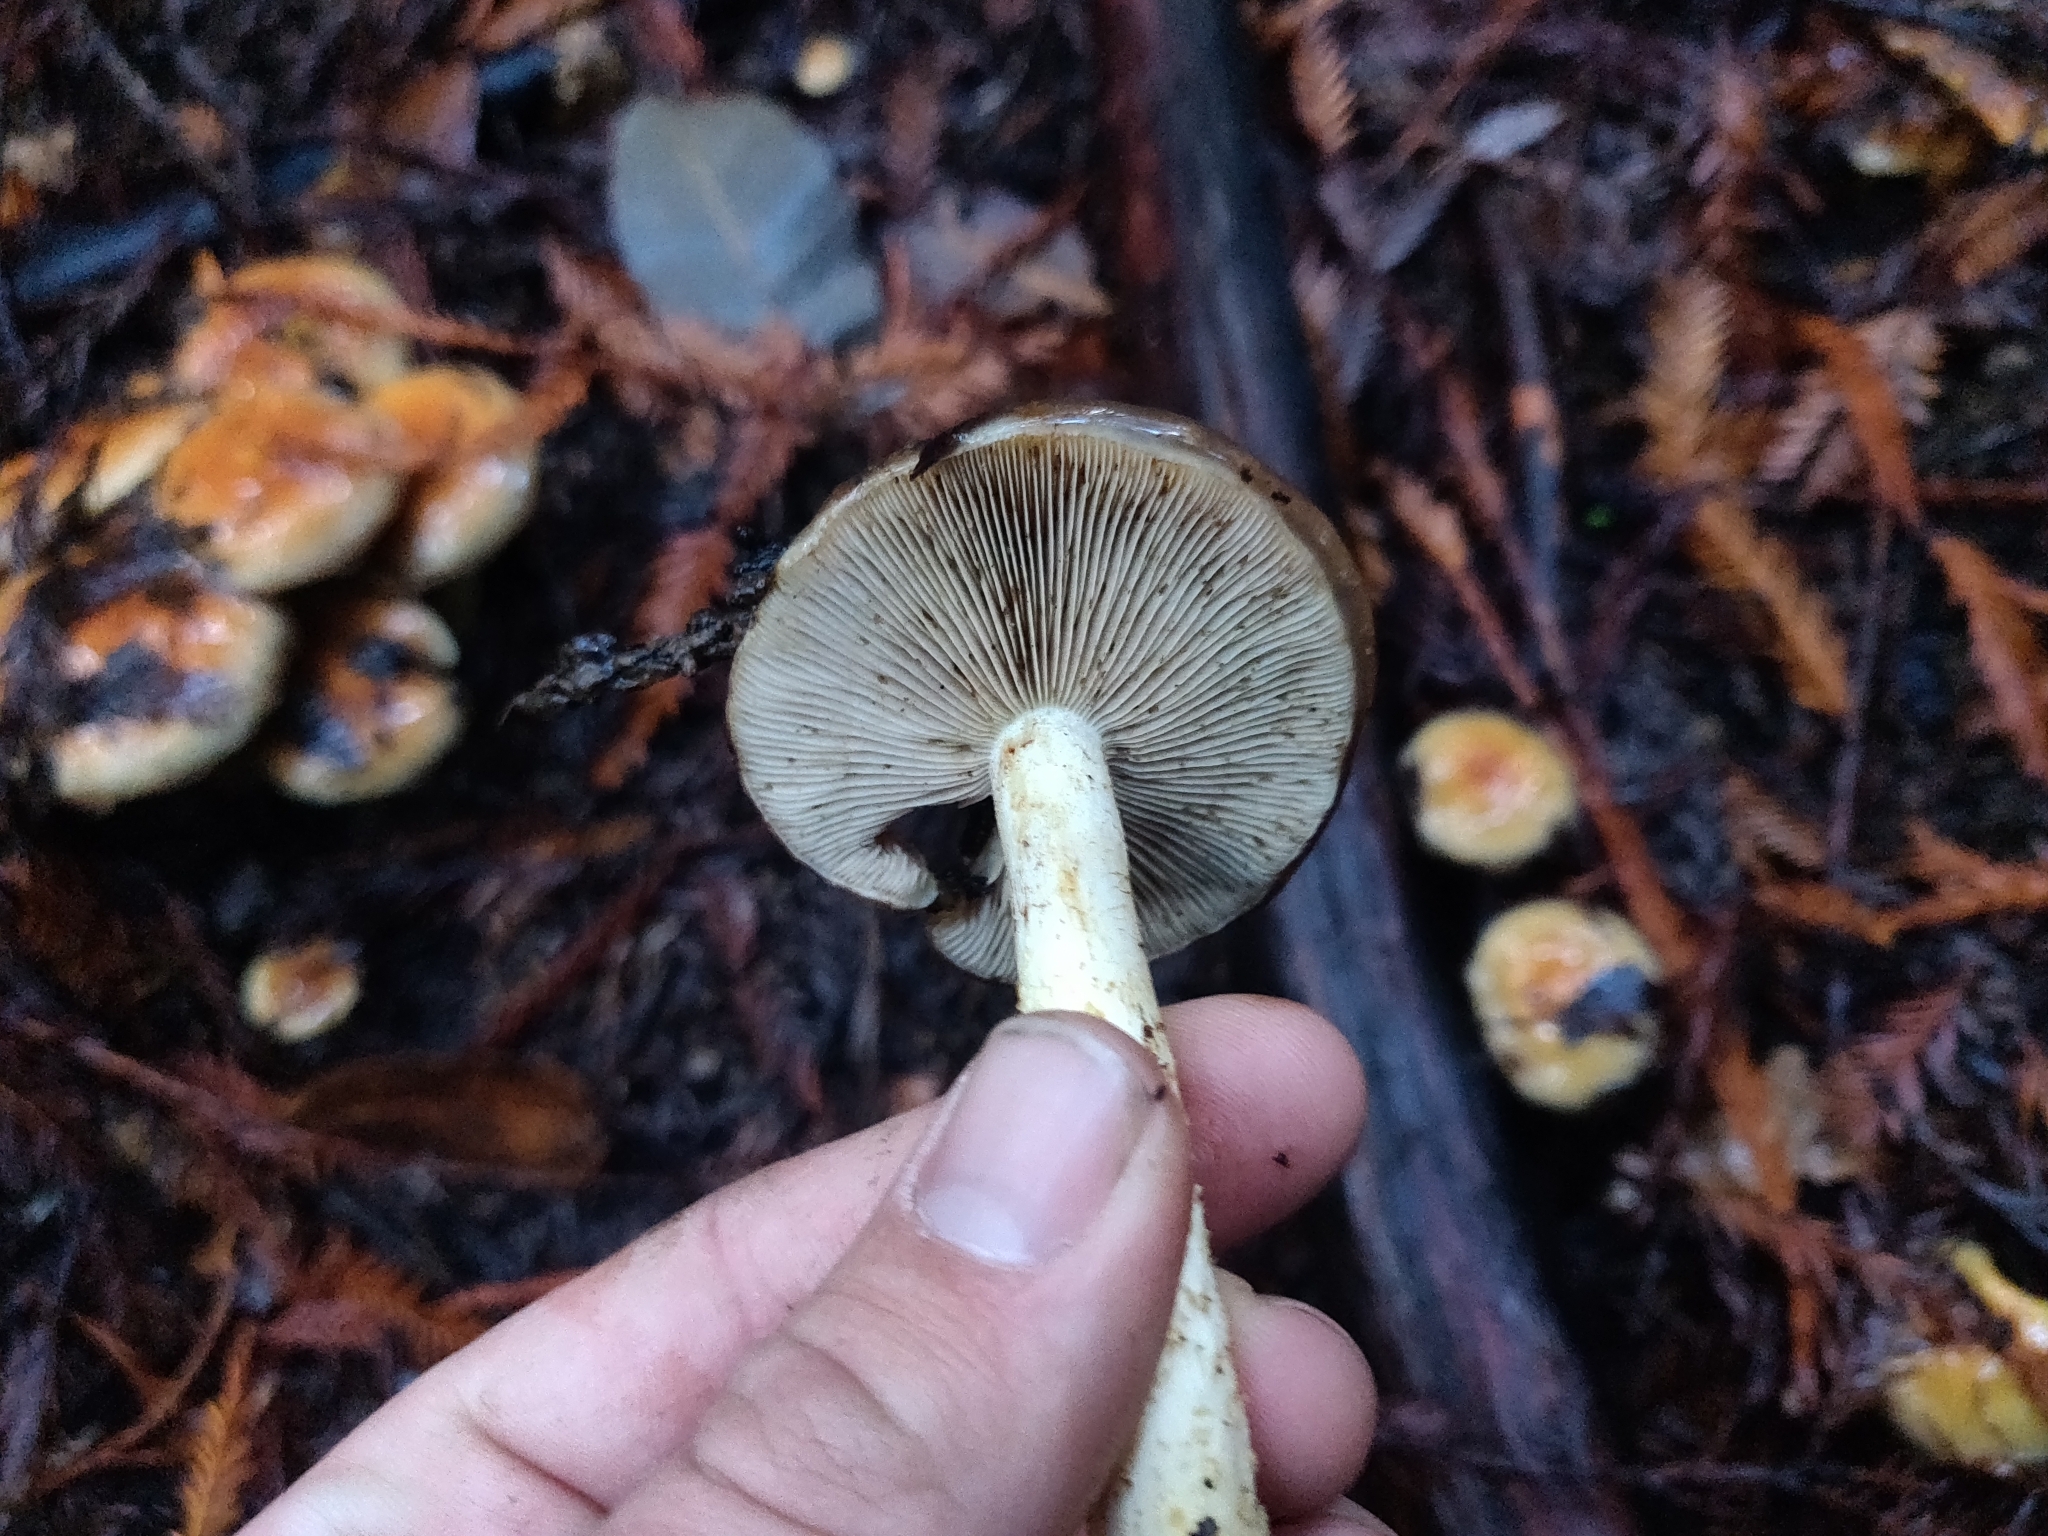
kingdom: Fungi
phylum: Basidiomycota
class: Agaricomycetes
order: Agaricales
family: Strophariaceae
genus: Pholiota
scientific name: Pholiota velaglutinosa
